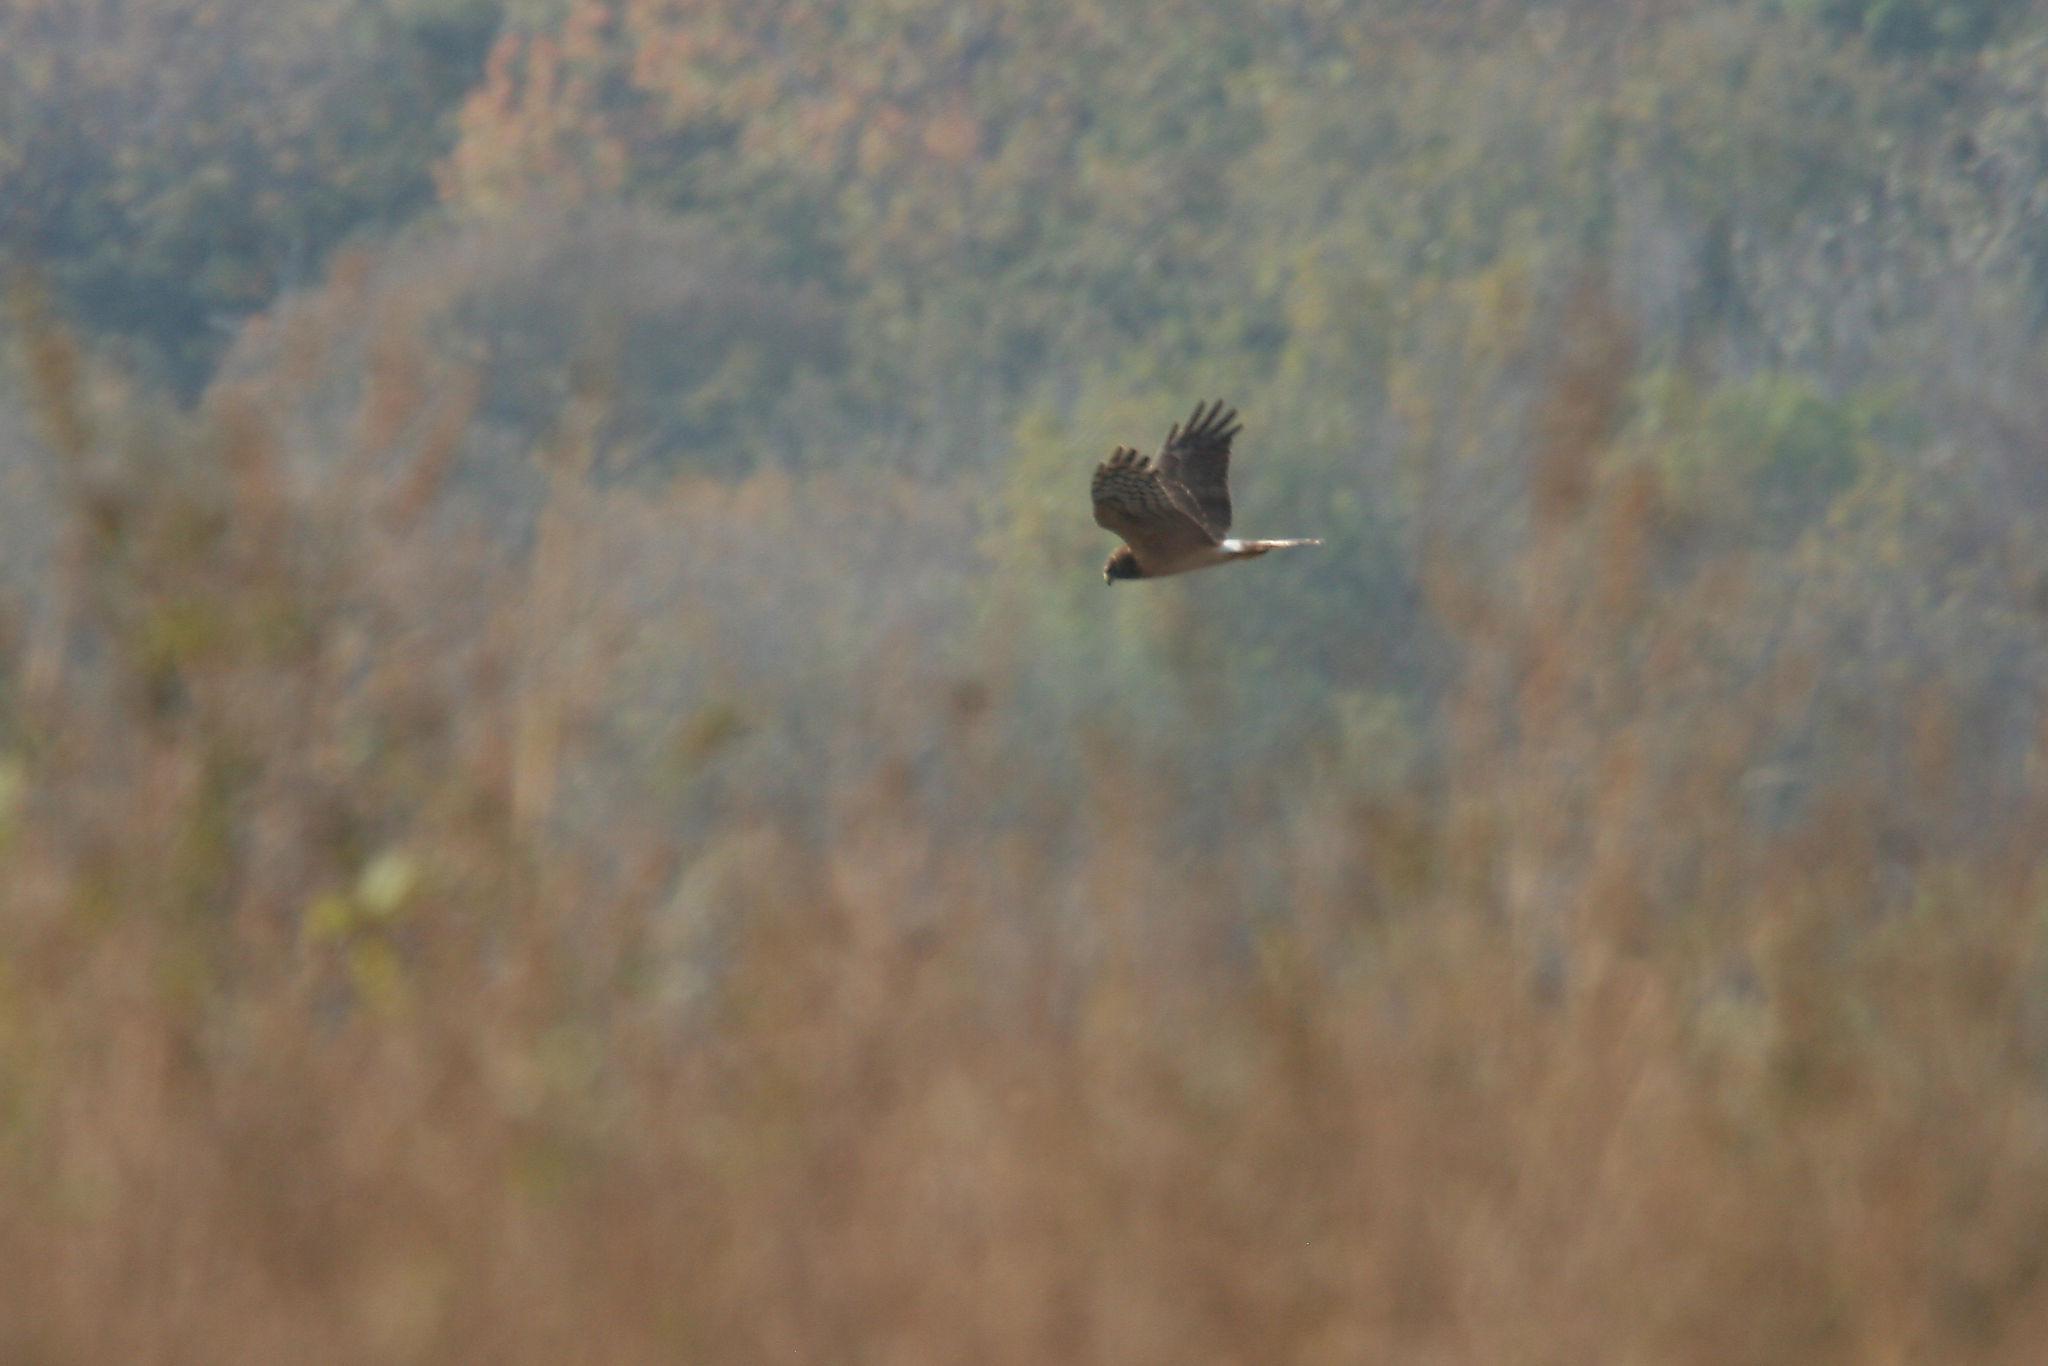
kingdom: Animalia
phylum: Chordata
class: Aves
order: Accipitriformes
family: Accipitridae
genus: Circus
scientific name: Circus cyaneus
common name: Hen harrier
